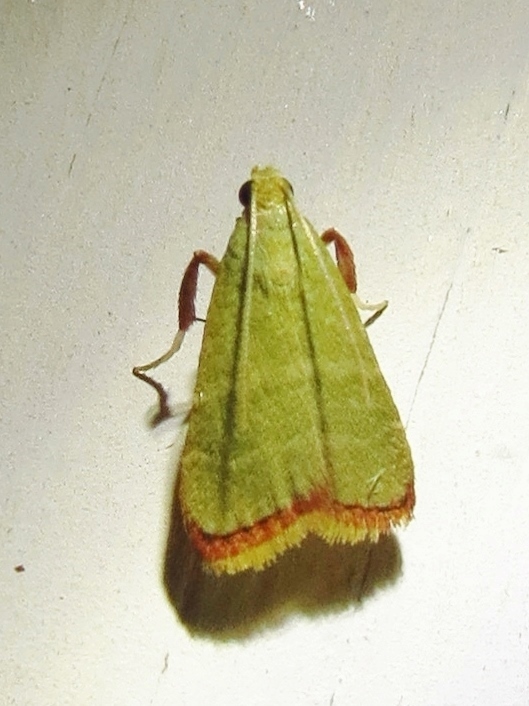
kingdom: Animalia
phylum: Arthropoda
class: Insecta
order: Lepidoptera
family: Pyralidae
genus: Arta
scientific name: Arta olivalis
